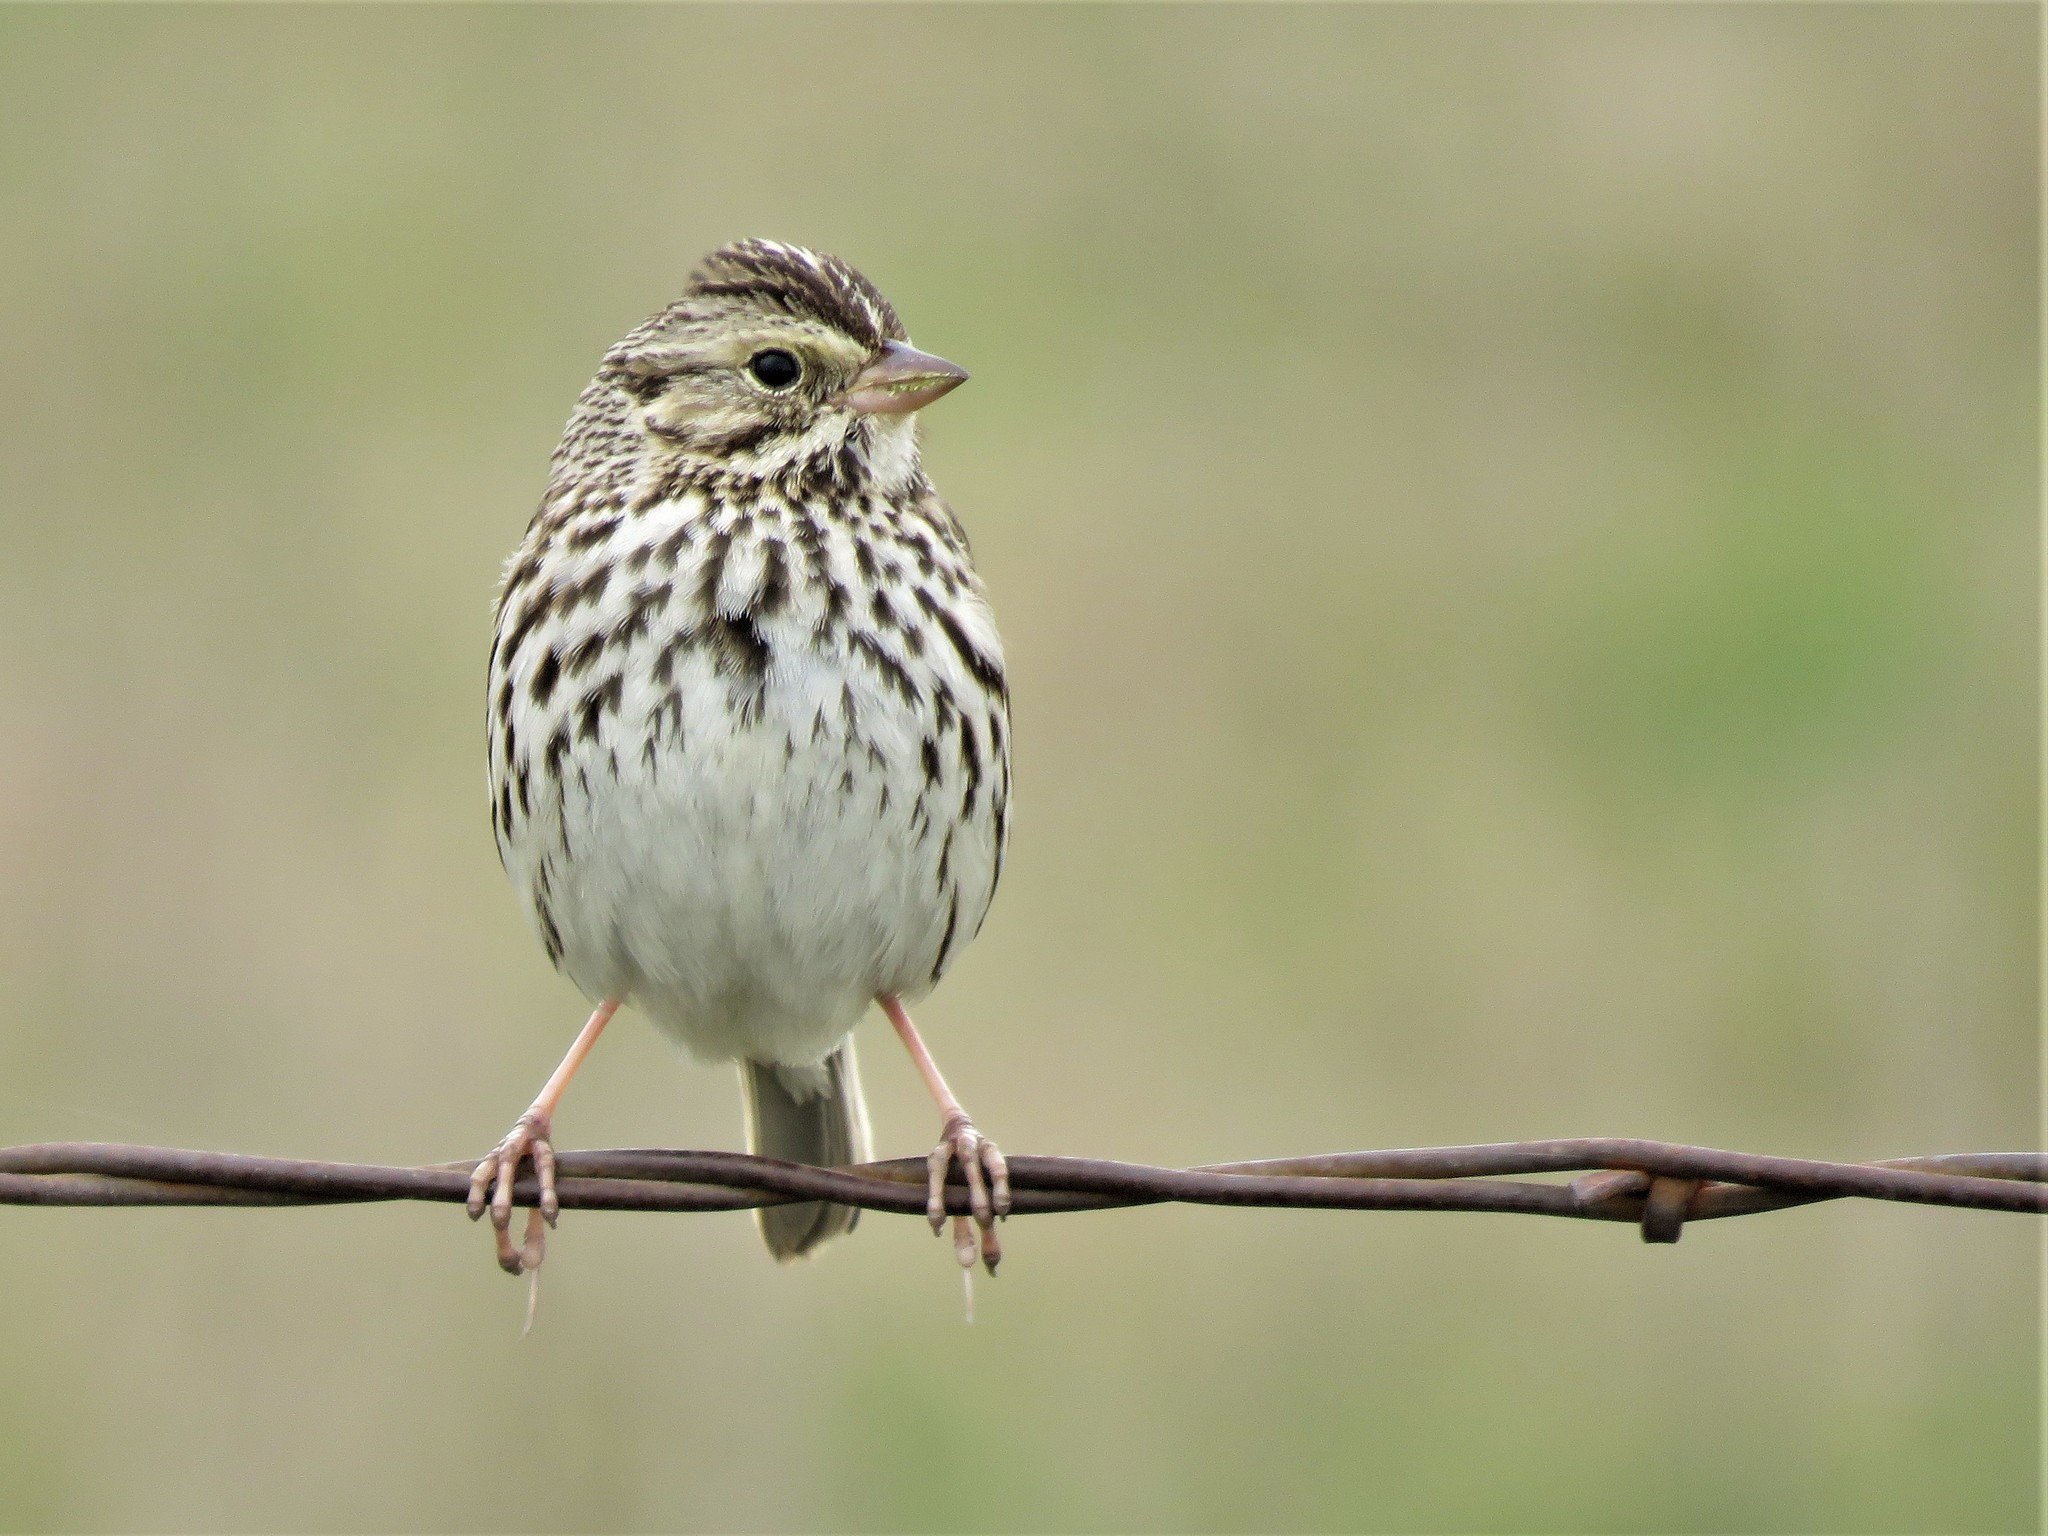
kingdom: Animalia
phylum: Chordata
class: Aves
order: Passeriformes
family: Passerellidae
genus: Passerculus
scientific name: Passerculus sandwichensis
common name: Savannah sparrow
